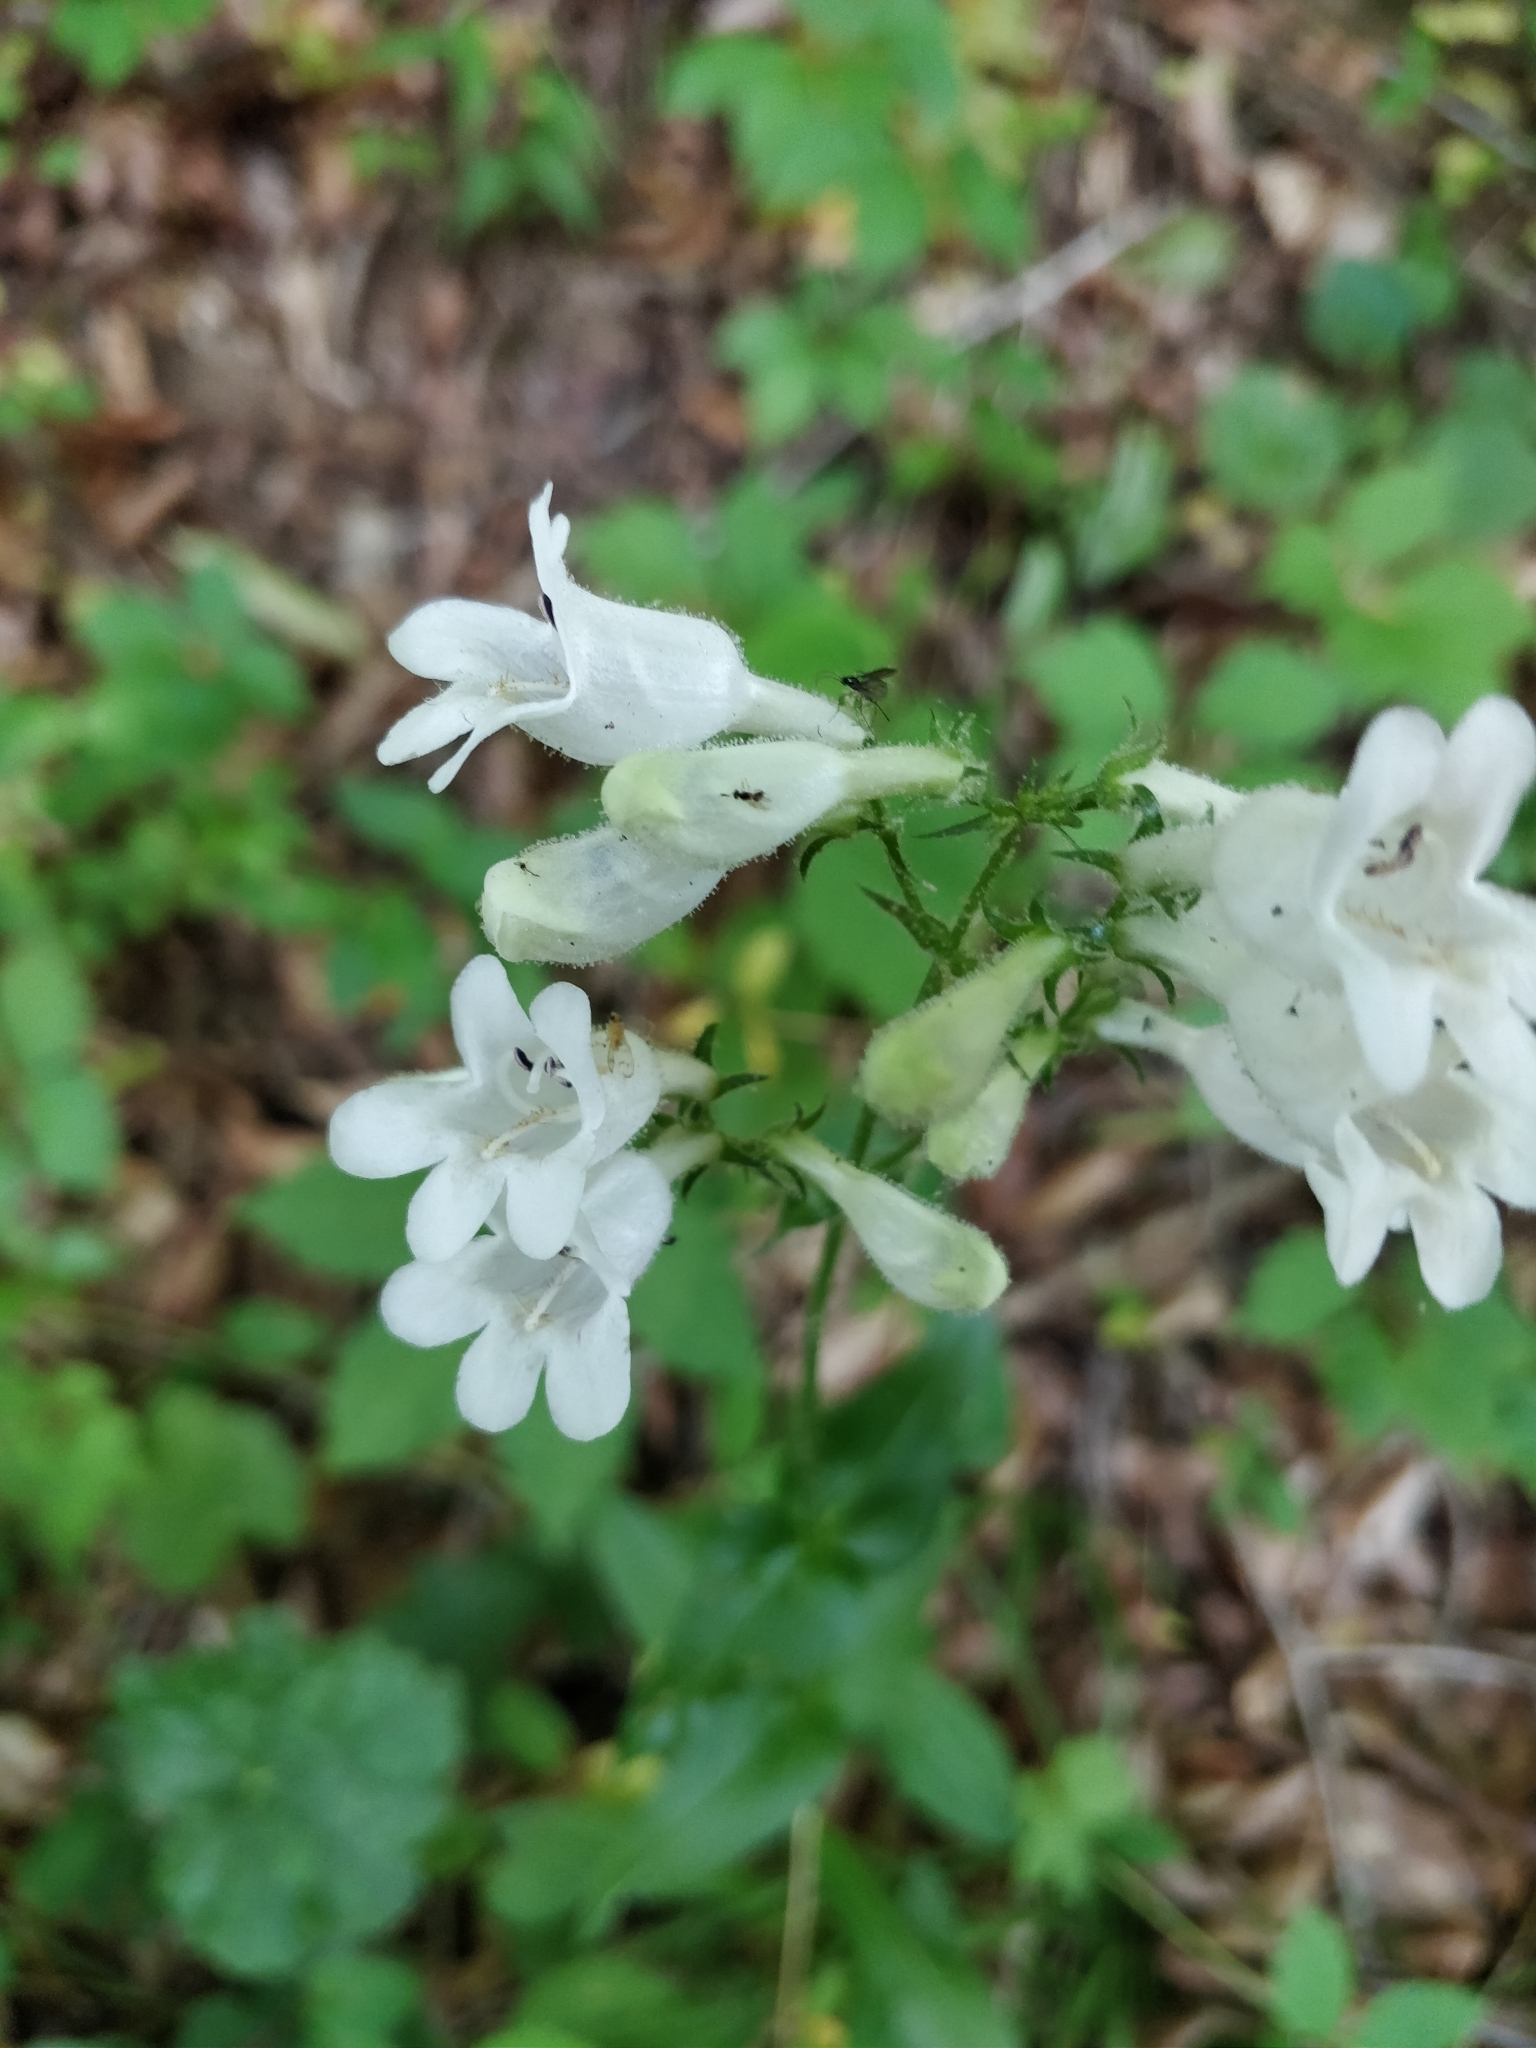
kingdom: Plantae
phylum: Tracheophyta
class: Magnoliopsida
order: Lamiales
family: Plantaginaceae
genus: Penstemon
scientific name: Penstemon digitalis
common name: Foxglove beardtongue
